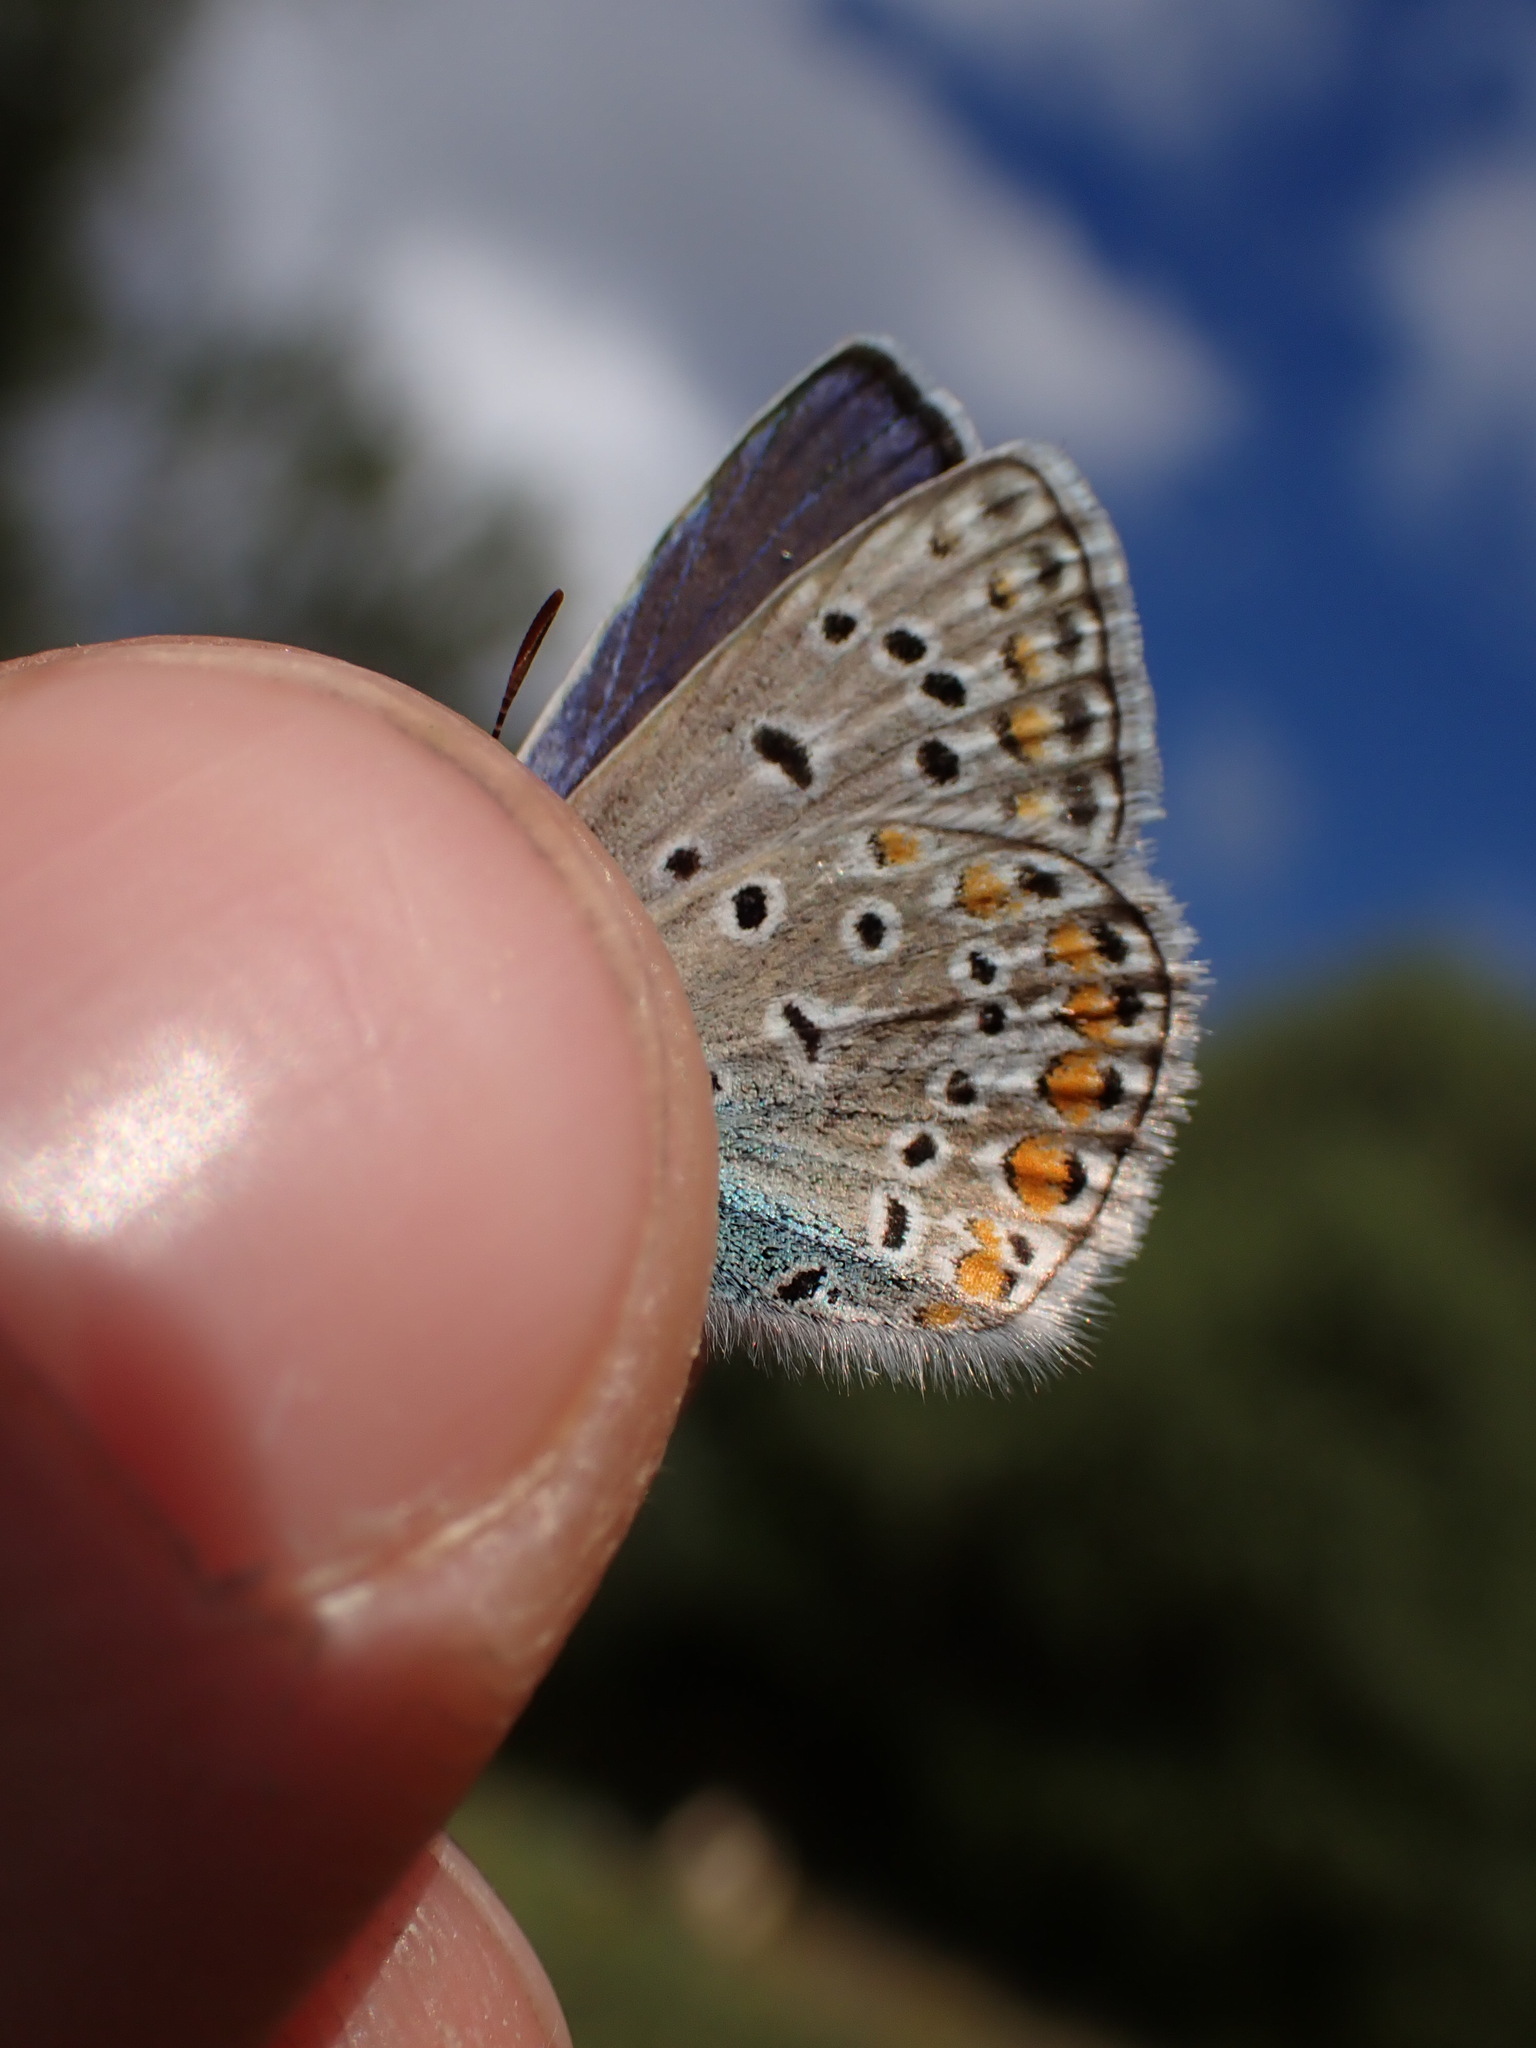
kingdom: Animalia
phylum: Arthropoda
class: Insecta
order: Lepidoptera
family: Lycaenidae
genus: Polyommatus
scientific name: Polyommatus icarus
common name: Common blue
